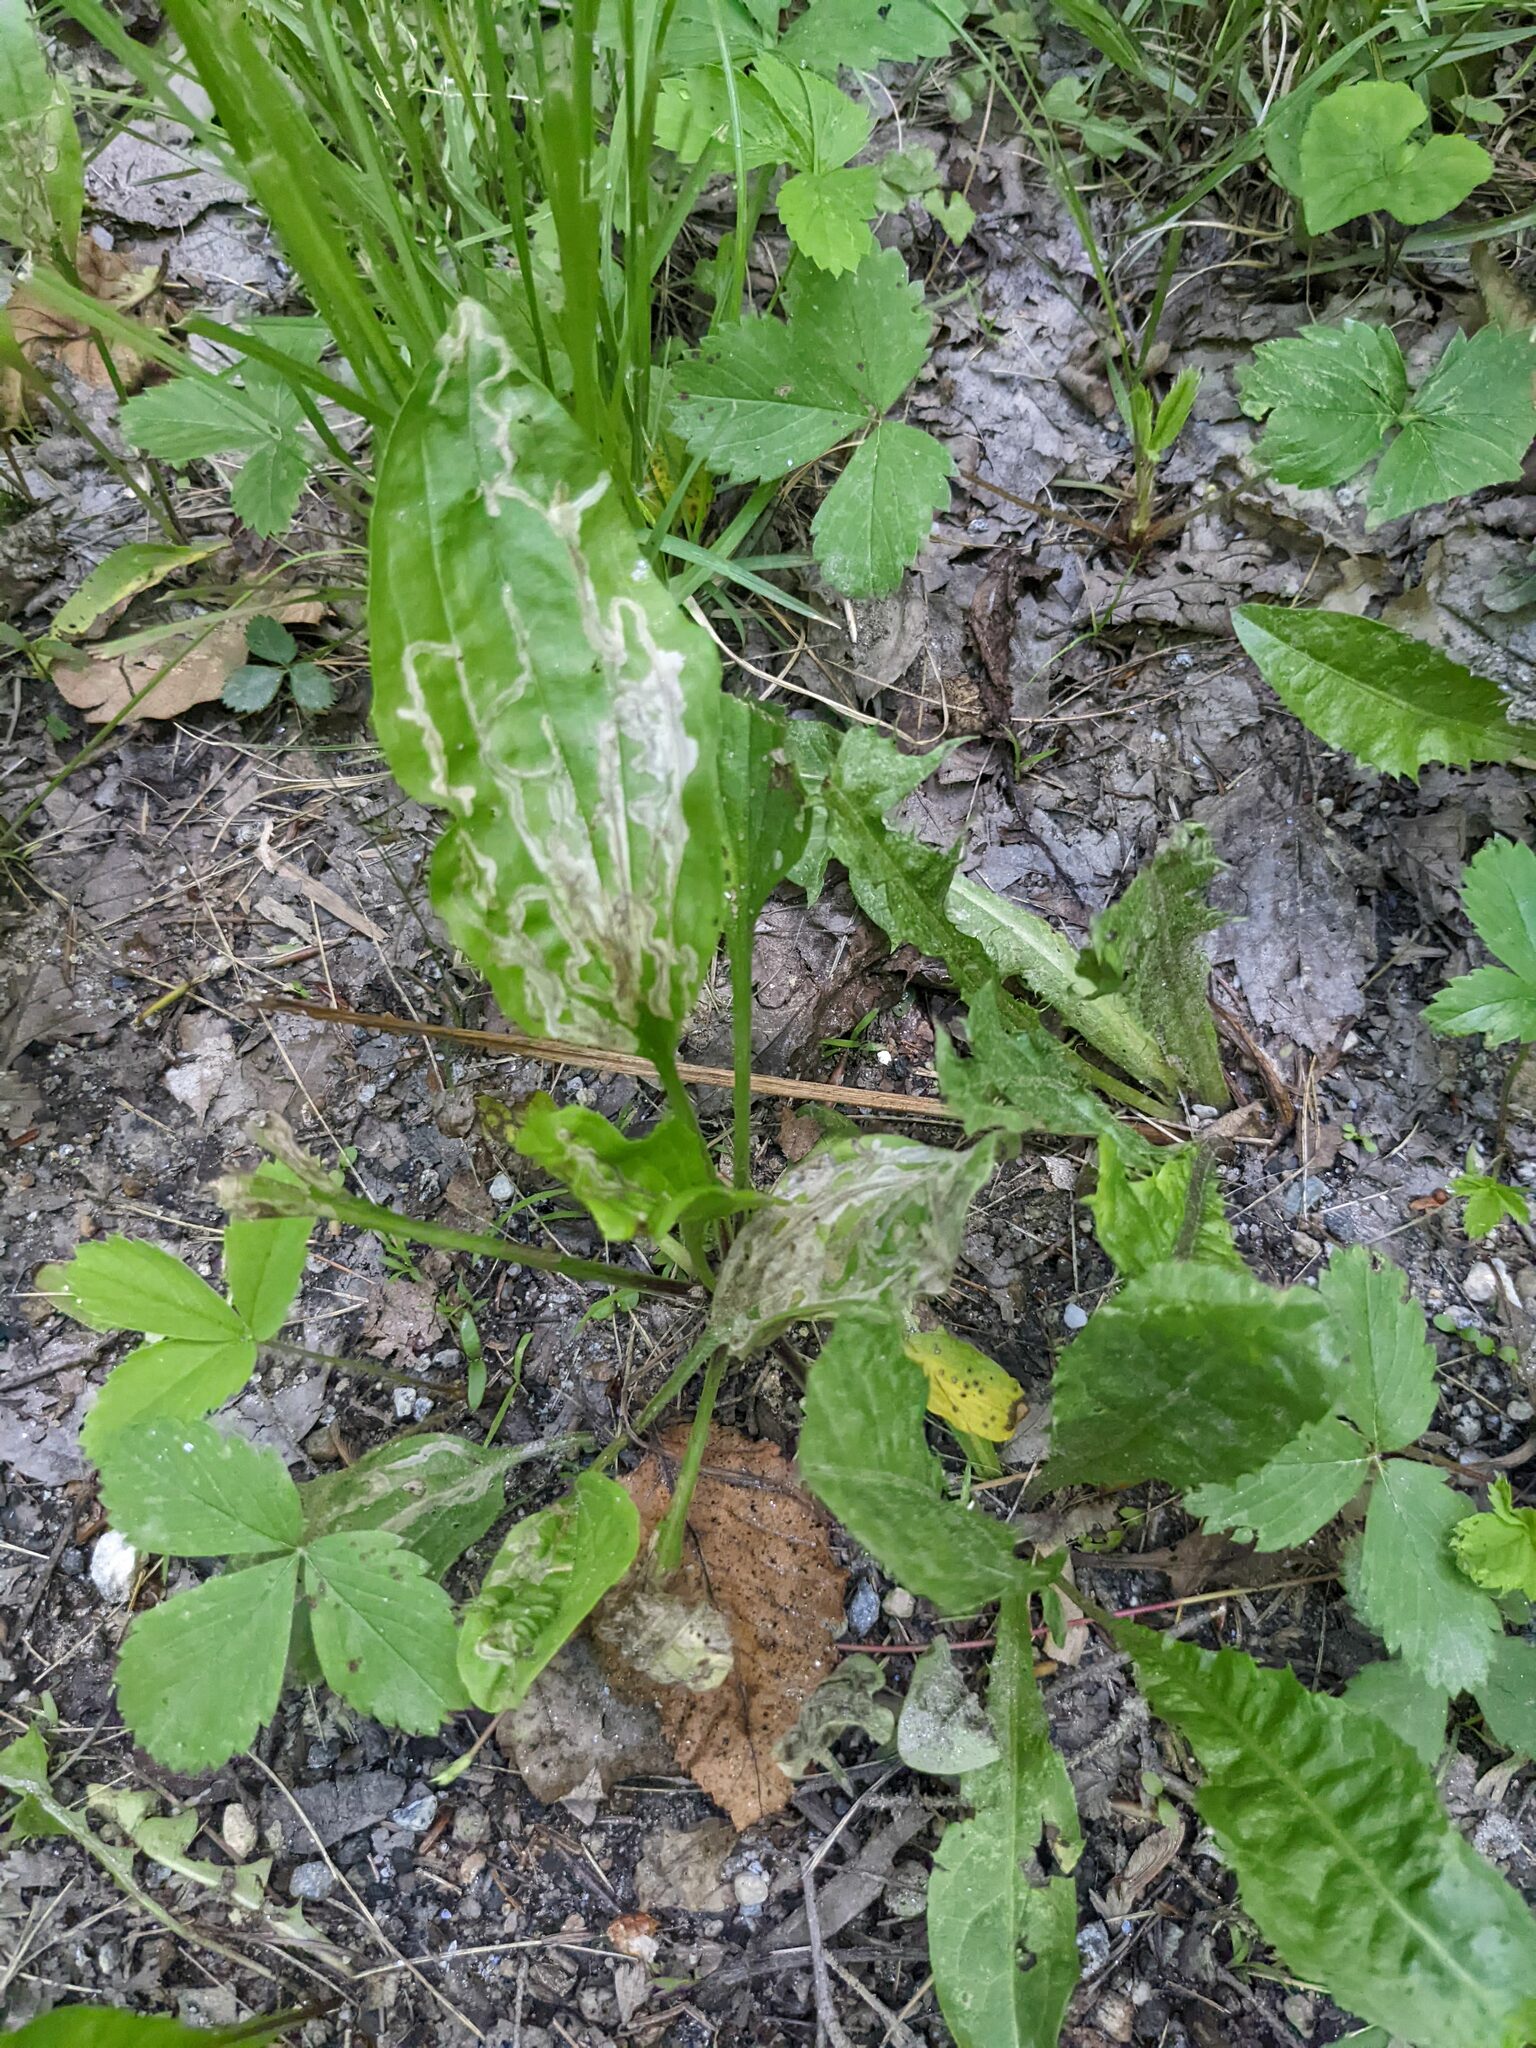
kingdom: Plantae
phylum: Tracheophyta
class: Magnoliopsida
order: Lamiales
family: Plantaginaceae
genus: Plantago
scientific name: Plantago rugelii
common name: American plantain
